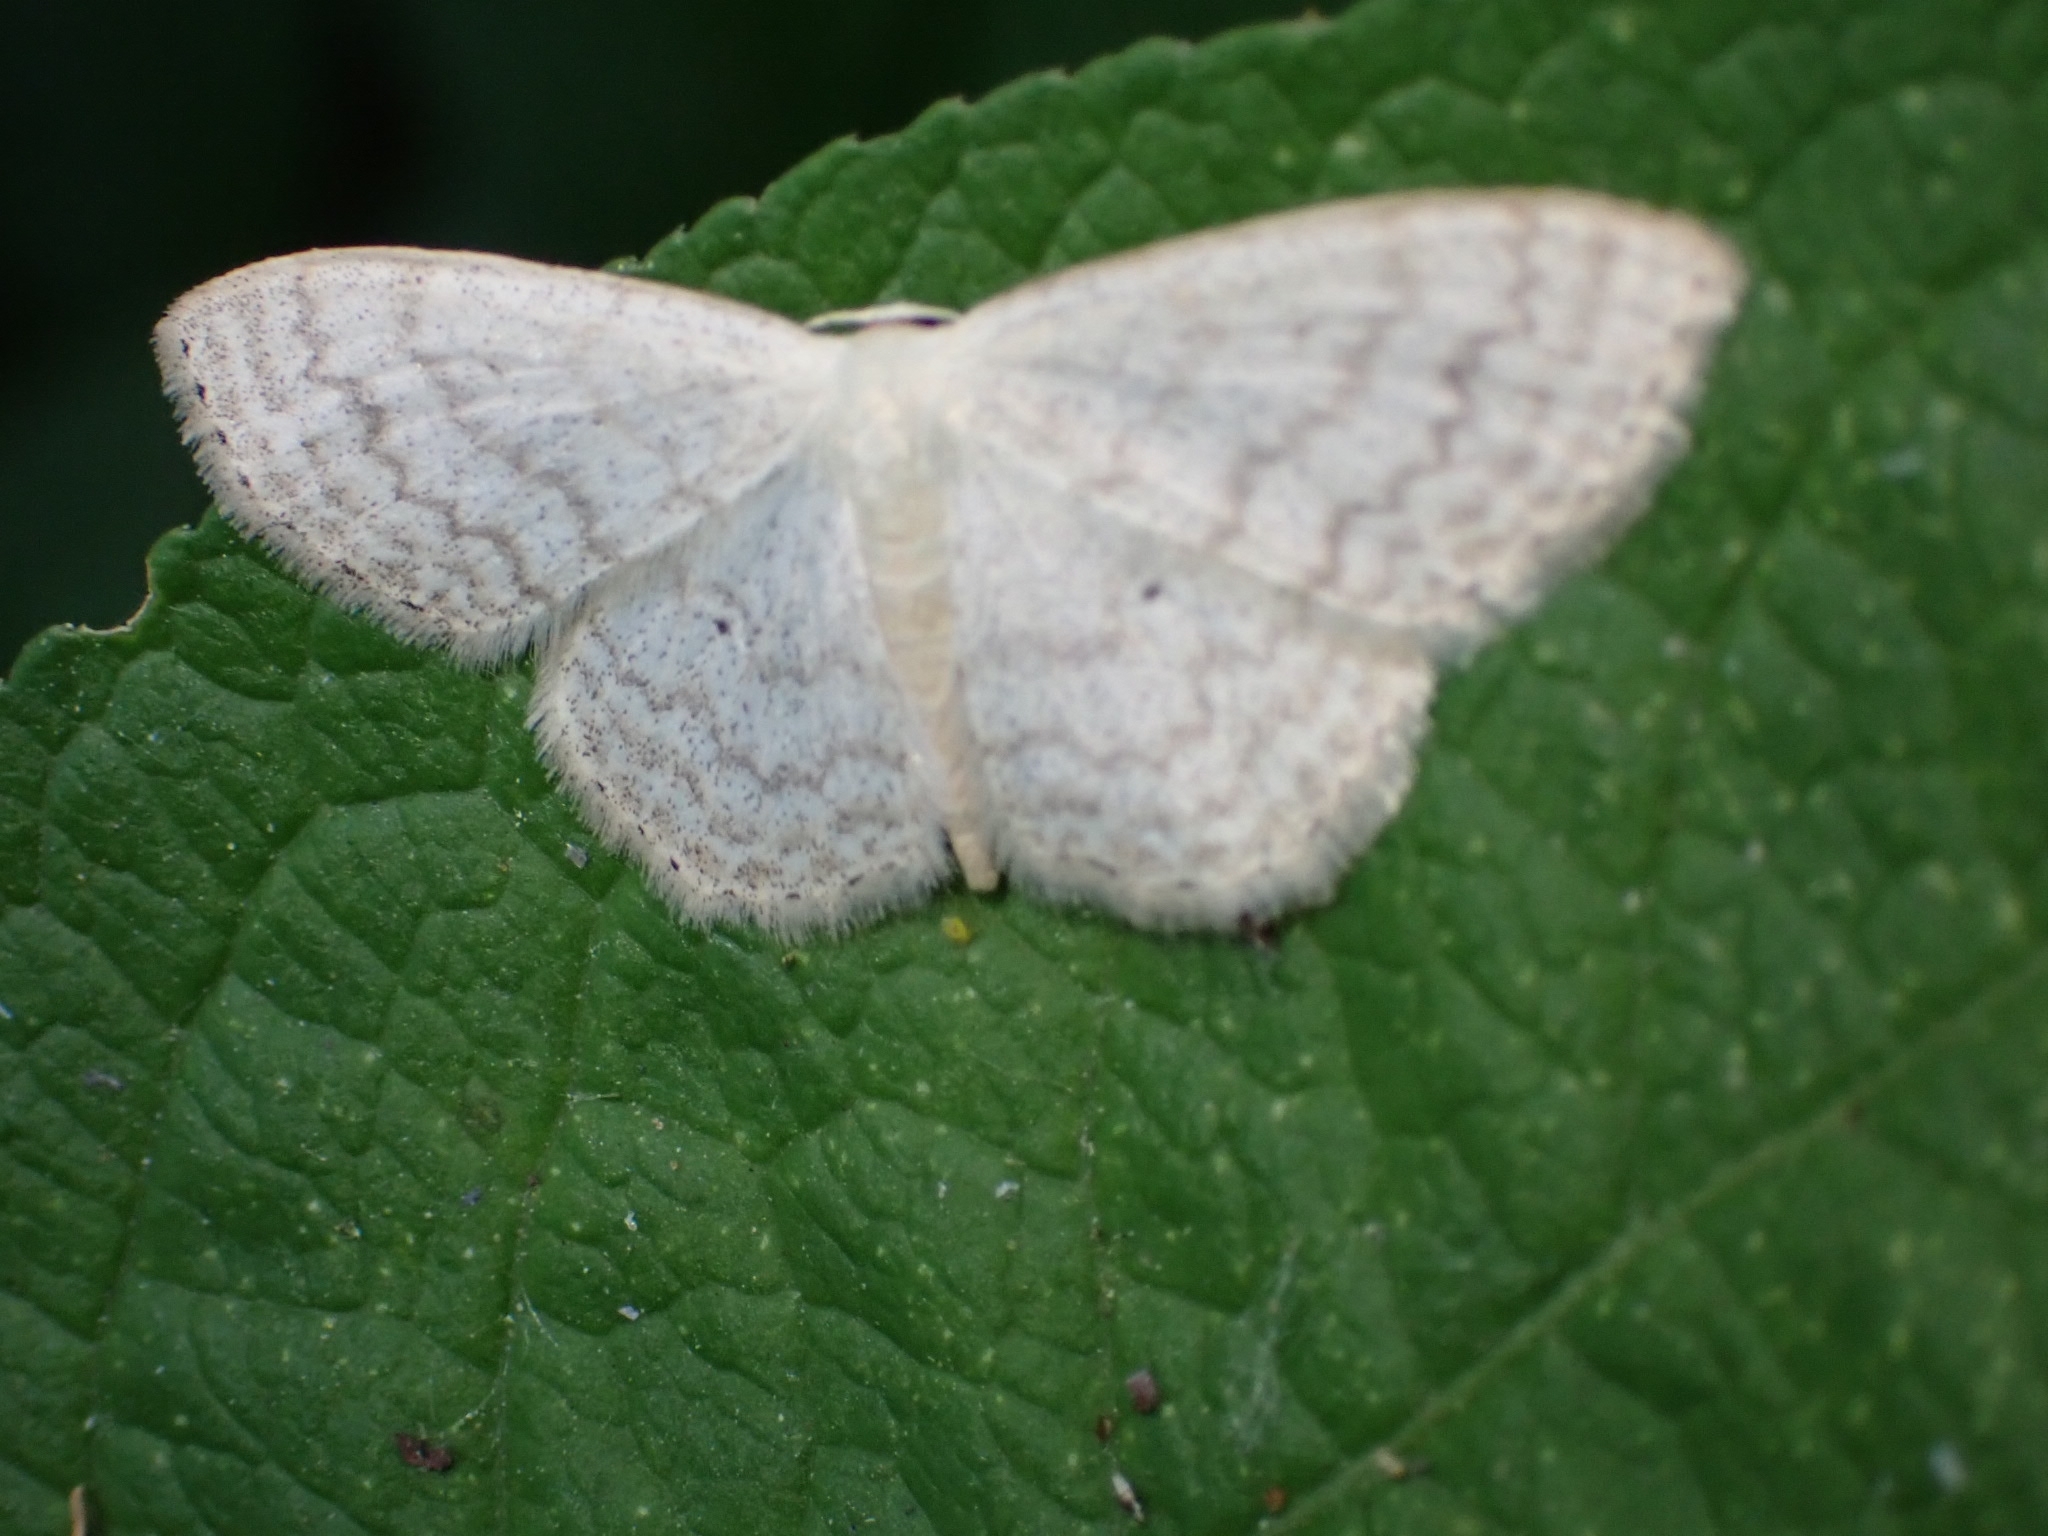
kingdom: Animalia
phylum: Arthropoda
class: Insecta
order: Lepidoptera
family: Geometridae
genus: Scopula
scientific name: Scopula floslactata
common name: Cream wave
